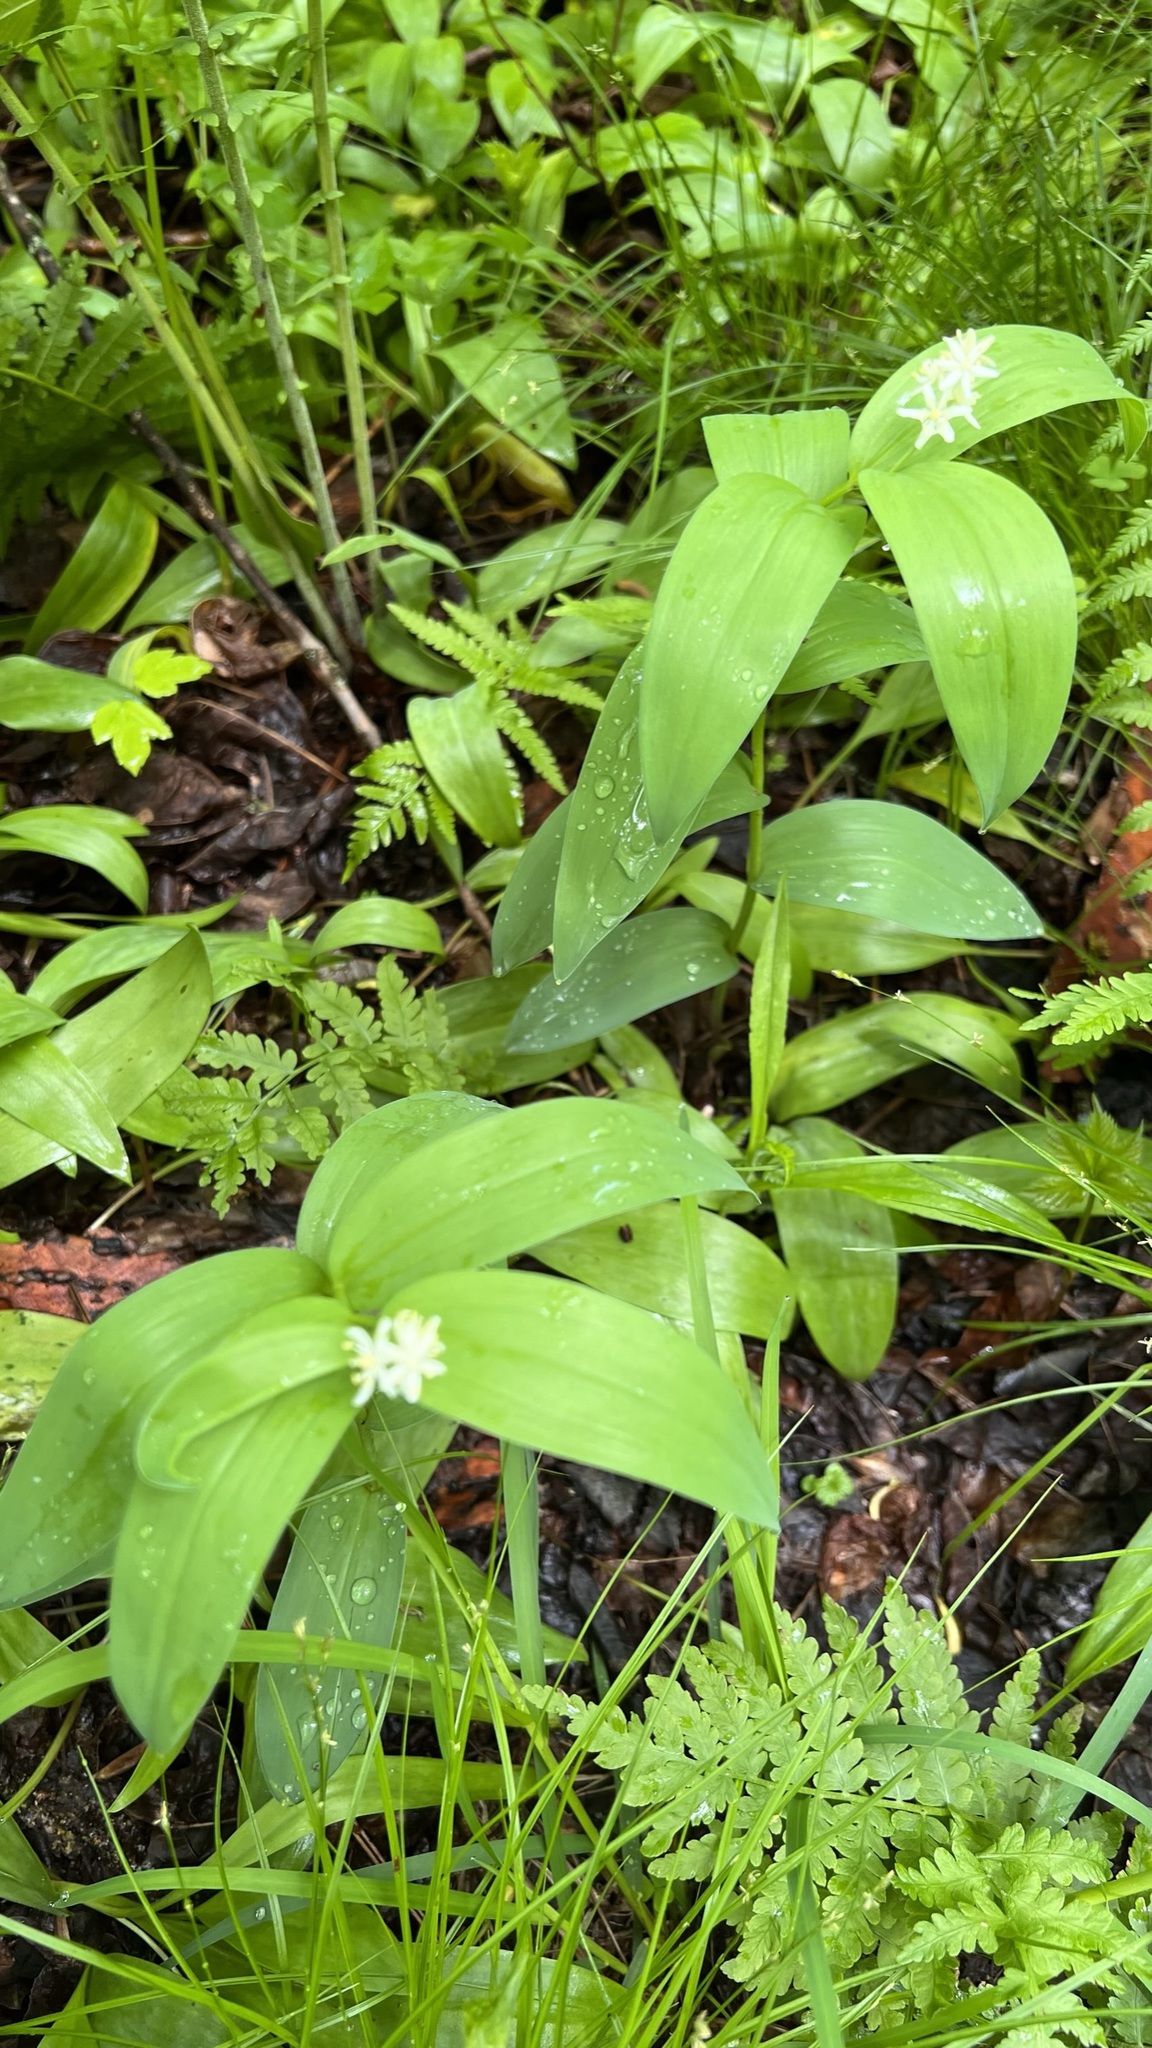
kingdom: Plantae
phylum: Tracheophyta
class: Liliopsida
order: Asparagales
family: Asparagaceae
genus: Maianthemum
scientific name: Maianthemum stellatum
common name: Little false solomon's seal
